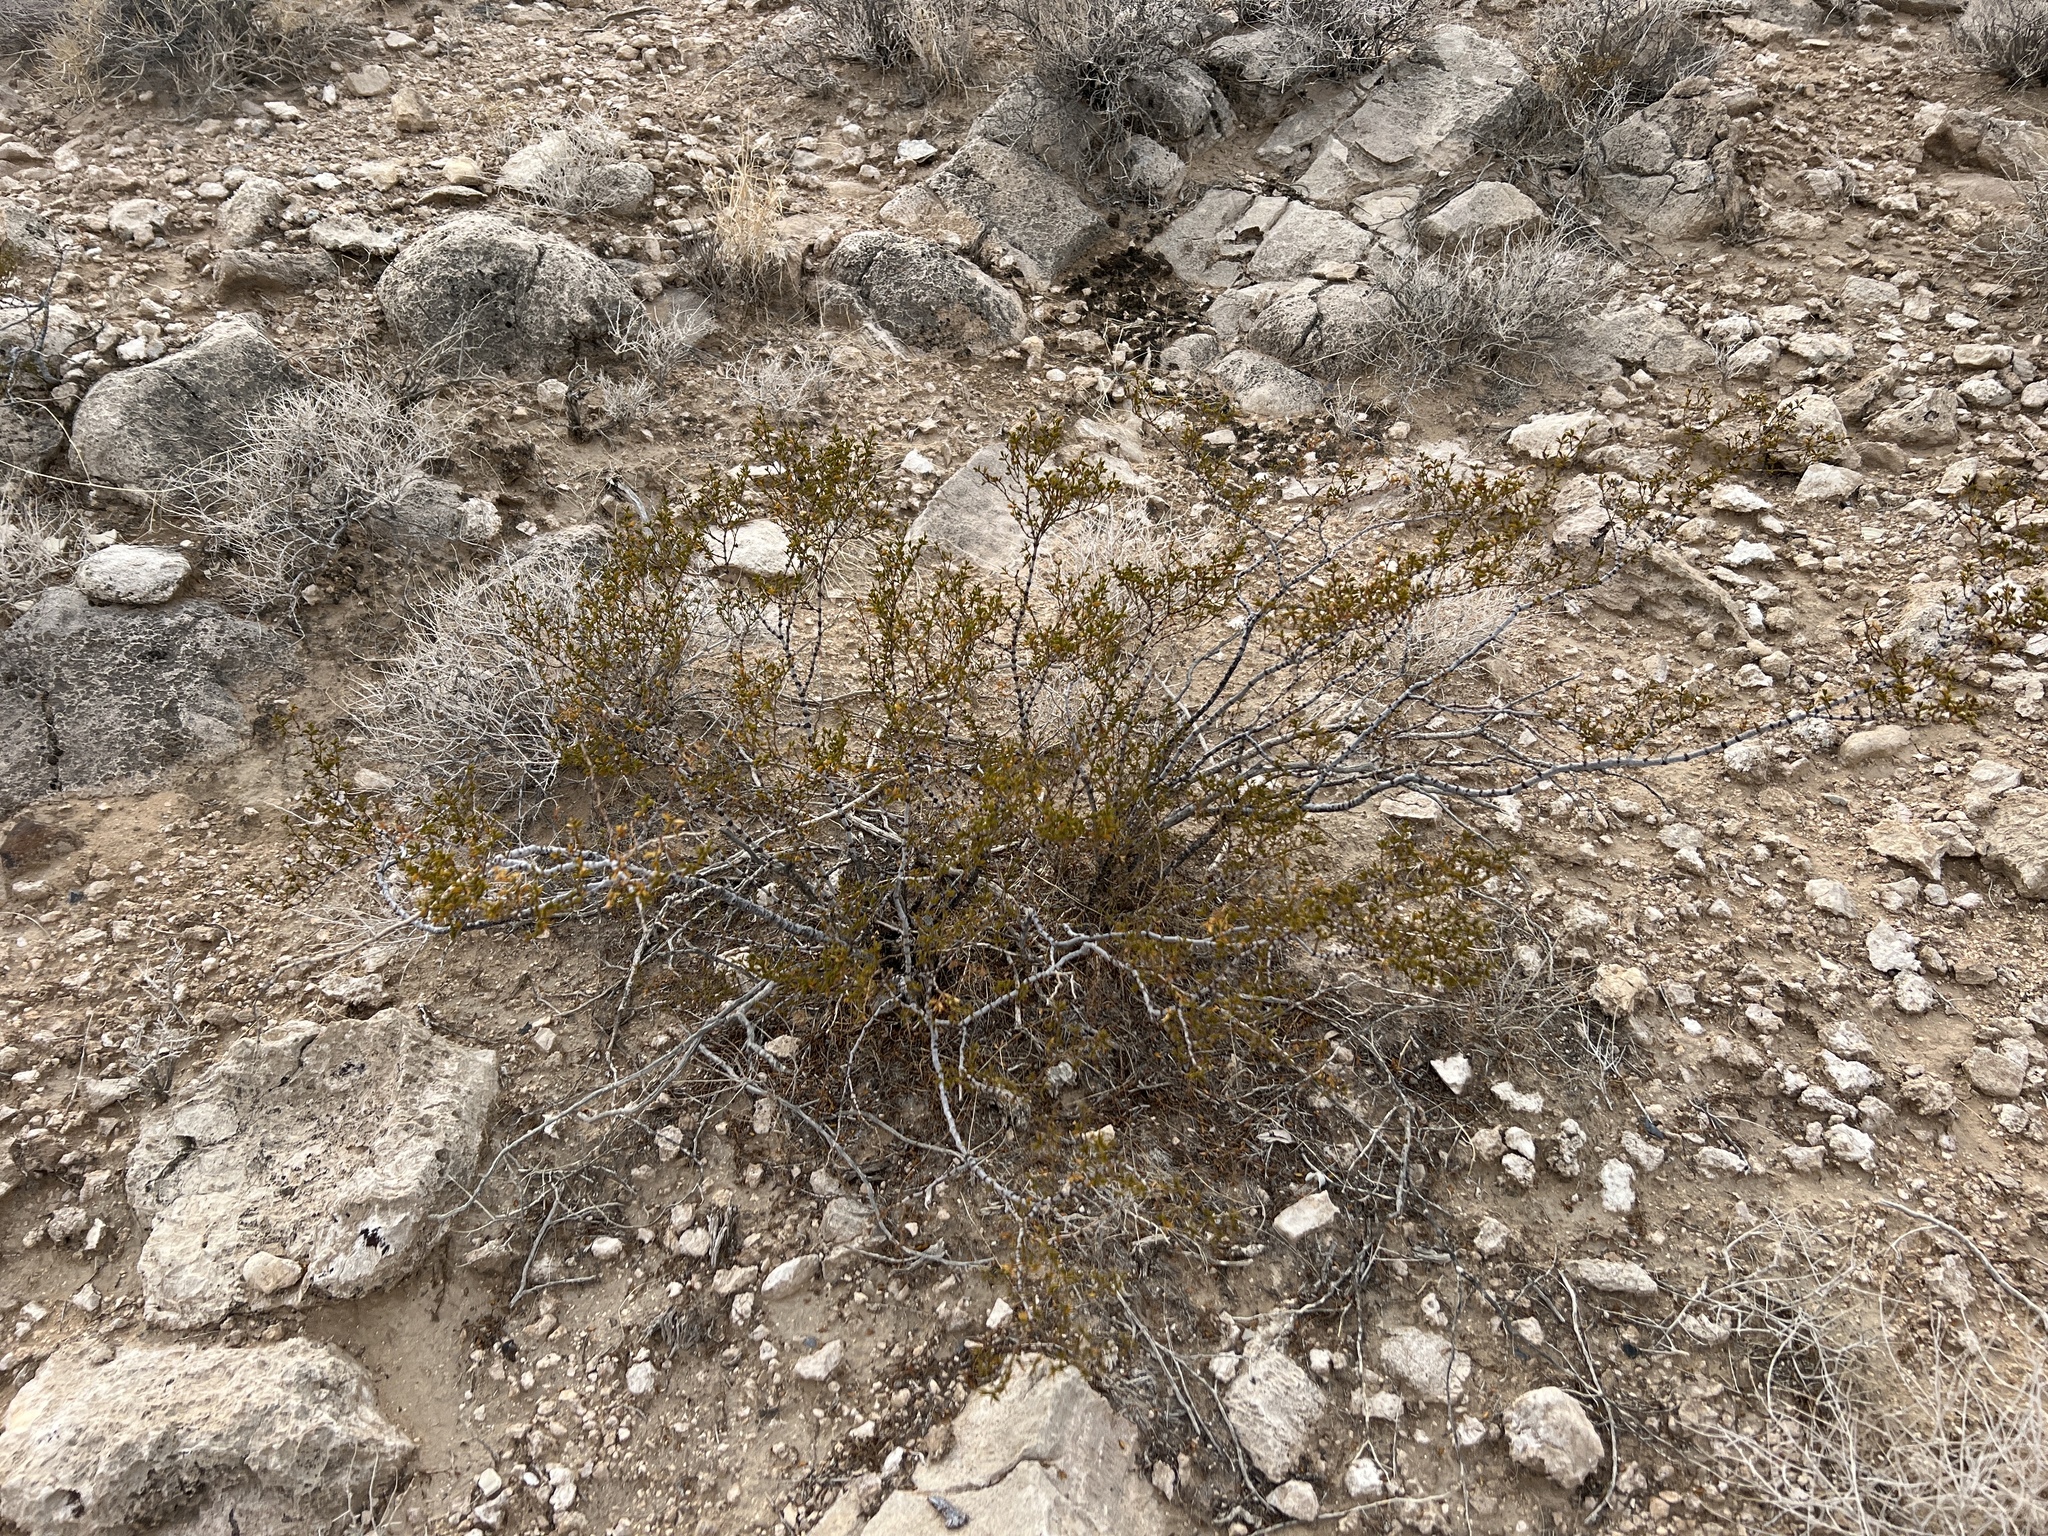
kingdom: Plantae
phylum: Tracheophyta
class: Magnoliopsida
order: Zygophyllales
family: Zygophyllaceae
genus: Larrea
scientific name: Larrea tridentata
